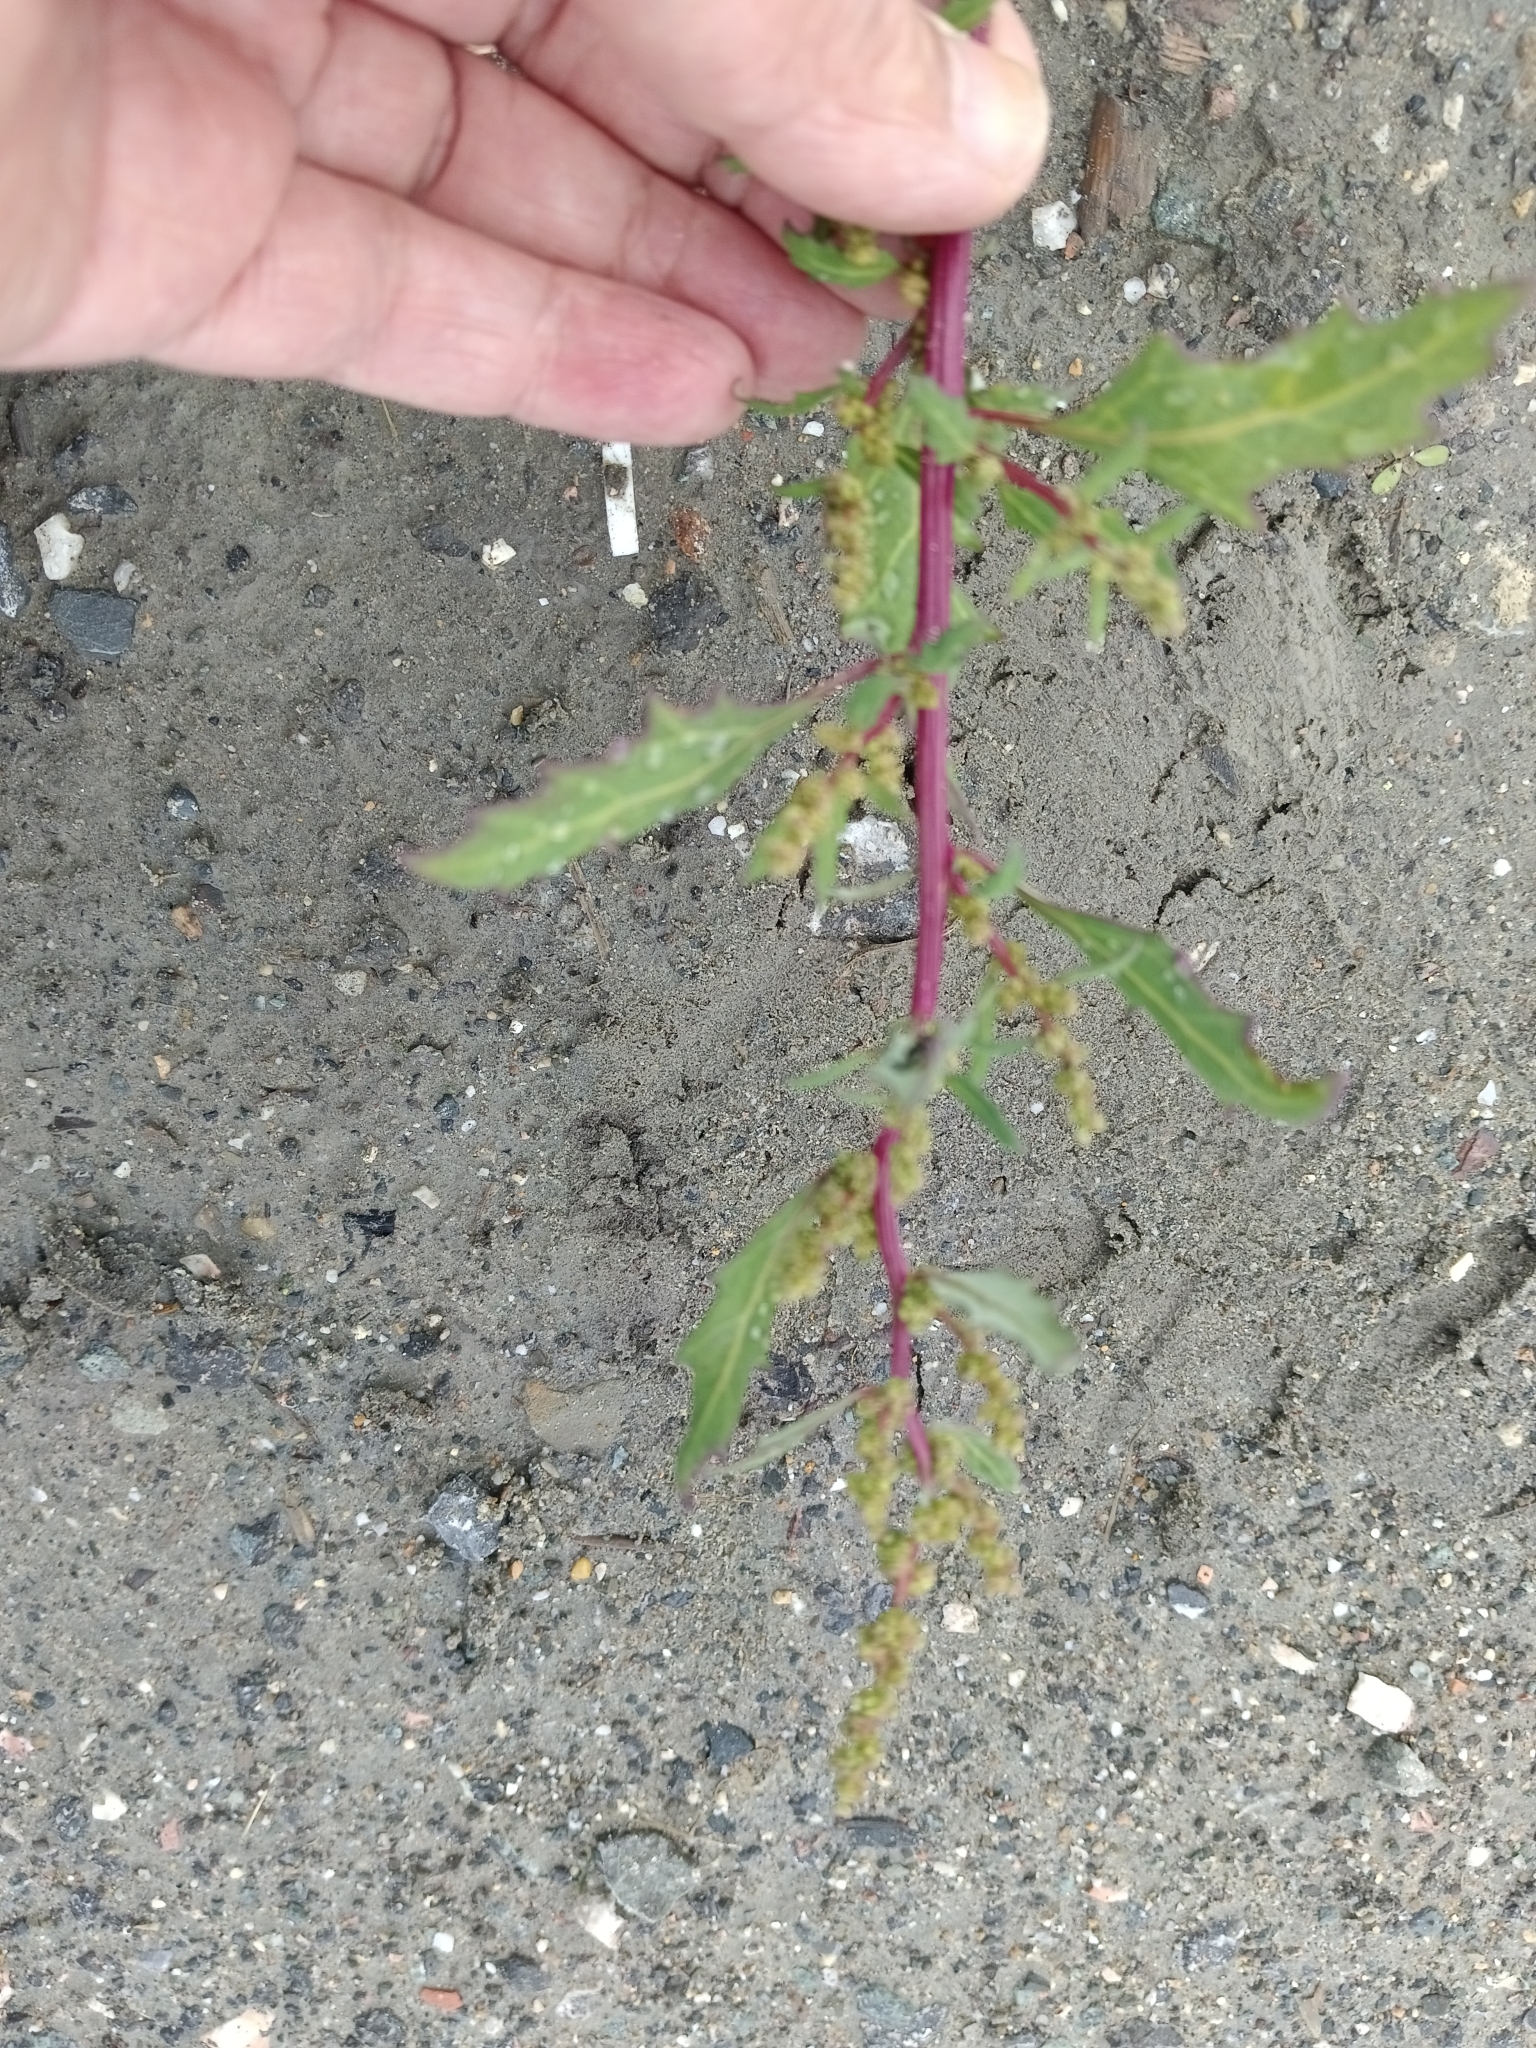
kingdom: Plantae
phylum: Tracheophyta
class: Magnoliopsida
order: Caryophyllales
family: Amaranthaceae
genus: Oxybasis
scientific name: Oxybasis glauca
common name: Glaucous goosefoot
